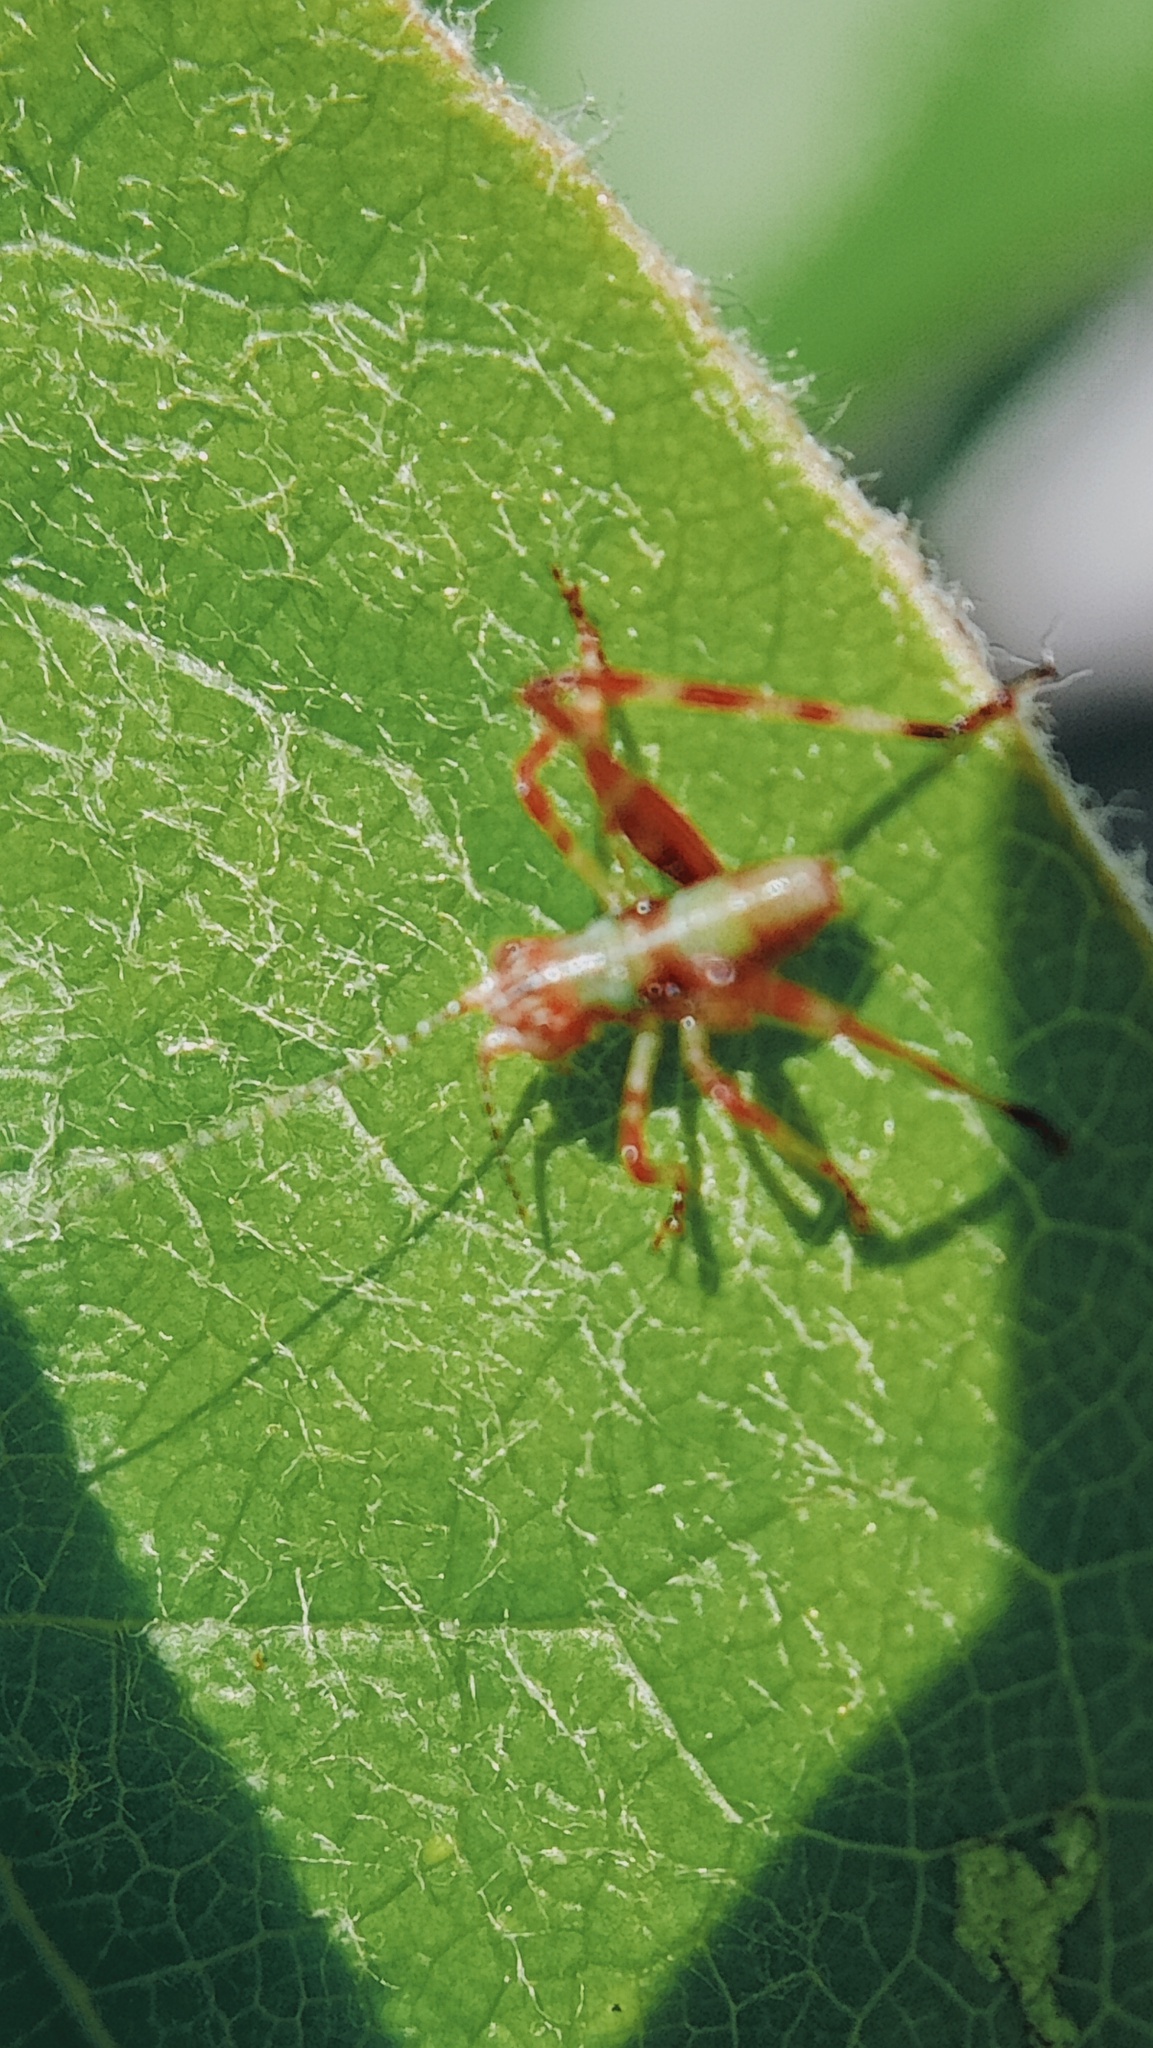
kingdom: Animalia
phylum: Arthropoda
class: Insecta
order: Orthoptera
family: Tettigoniidae
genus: Caedicia
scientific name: Caedicia simplex
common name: Common garden katydid
